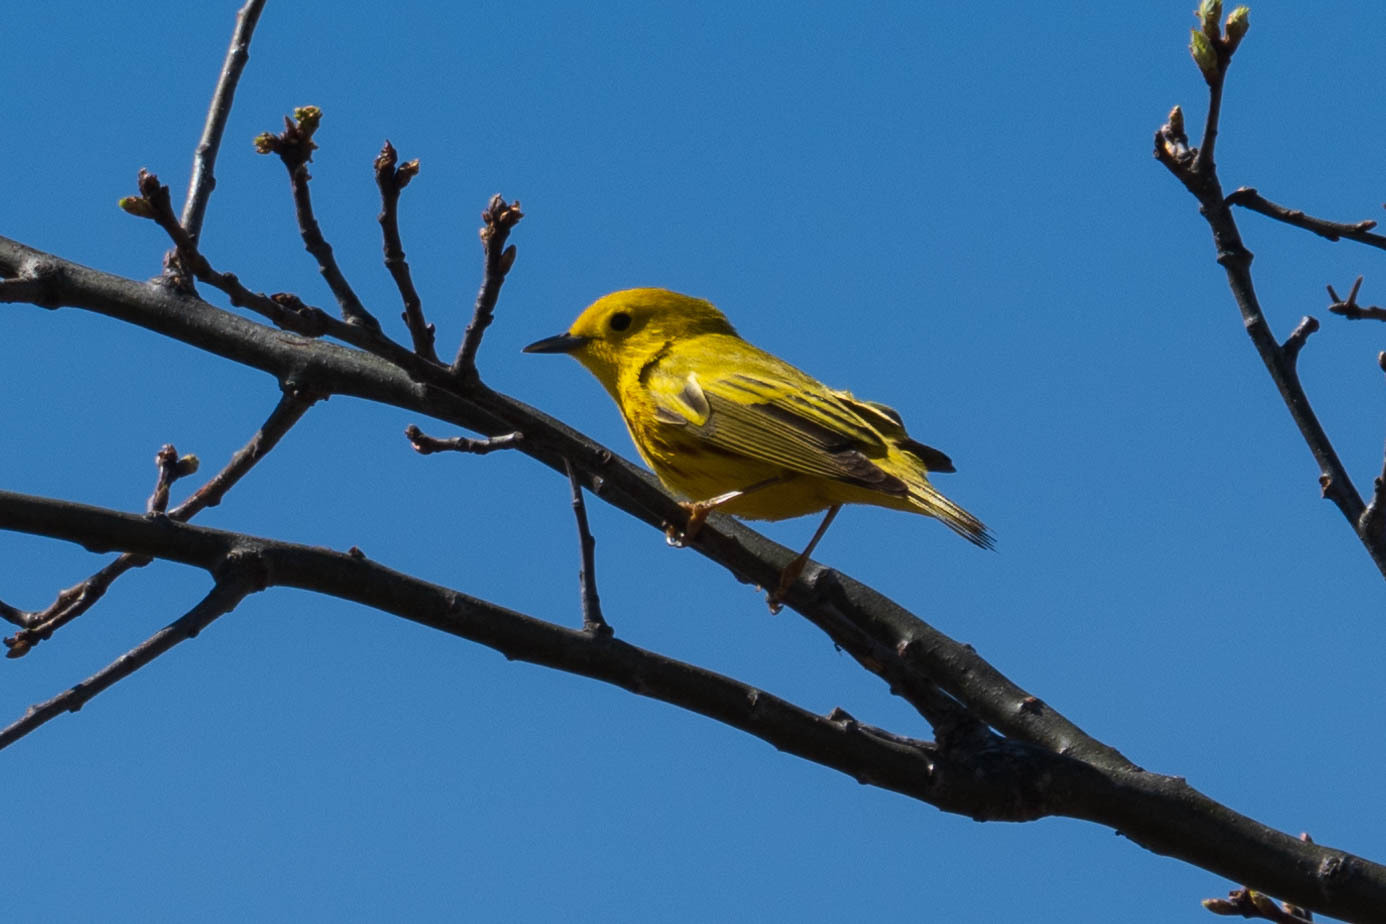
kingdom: Animalia
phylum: Chordata
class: Aves
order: Passeriformes
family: Parulidae
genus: Setophaga
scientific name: Setophaga petechia
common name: Yellow warbler
